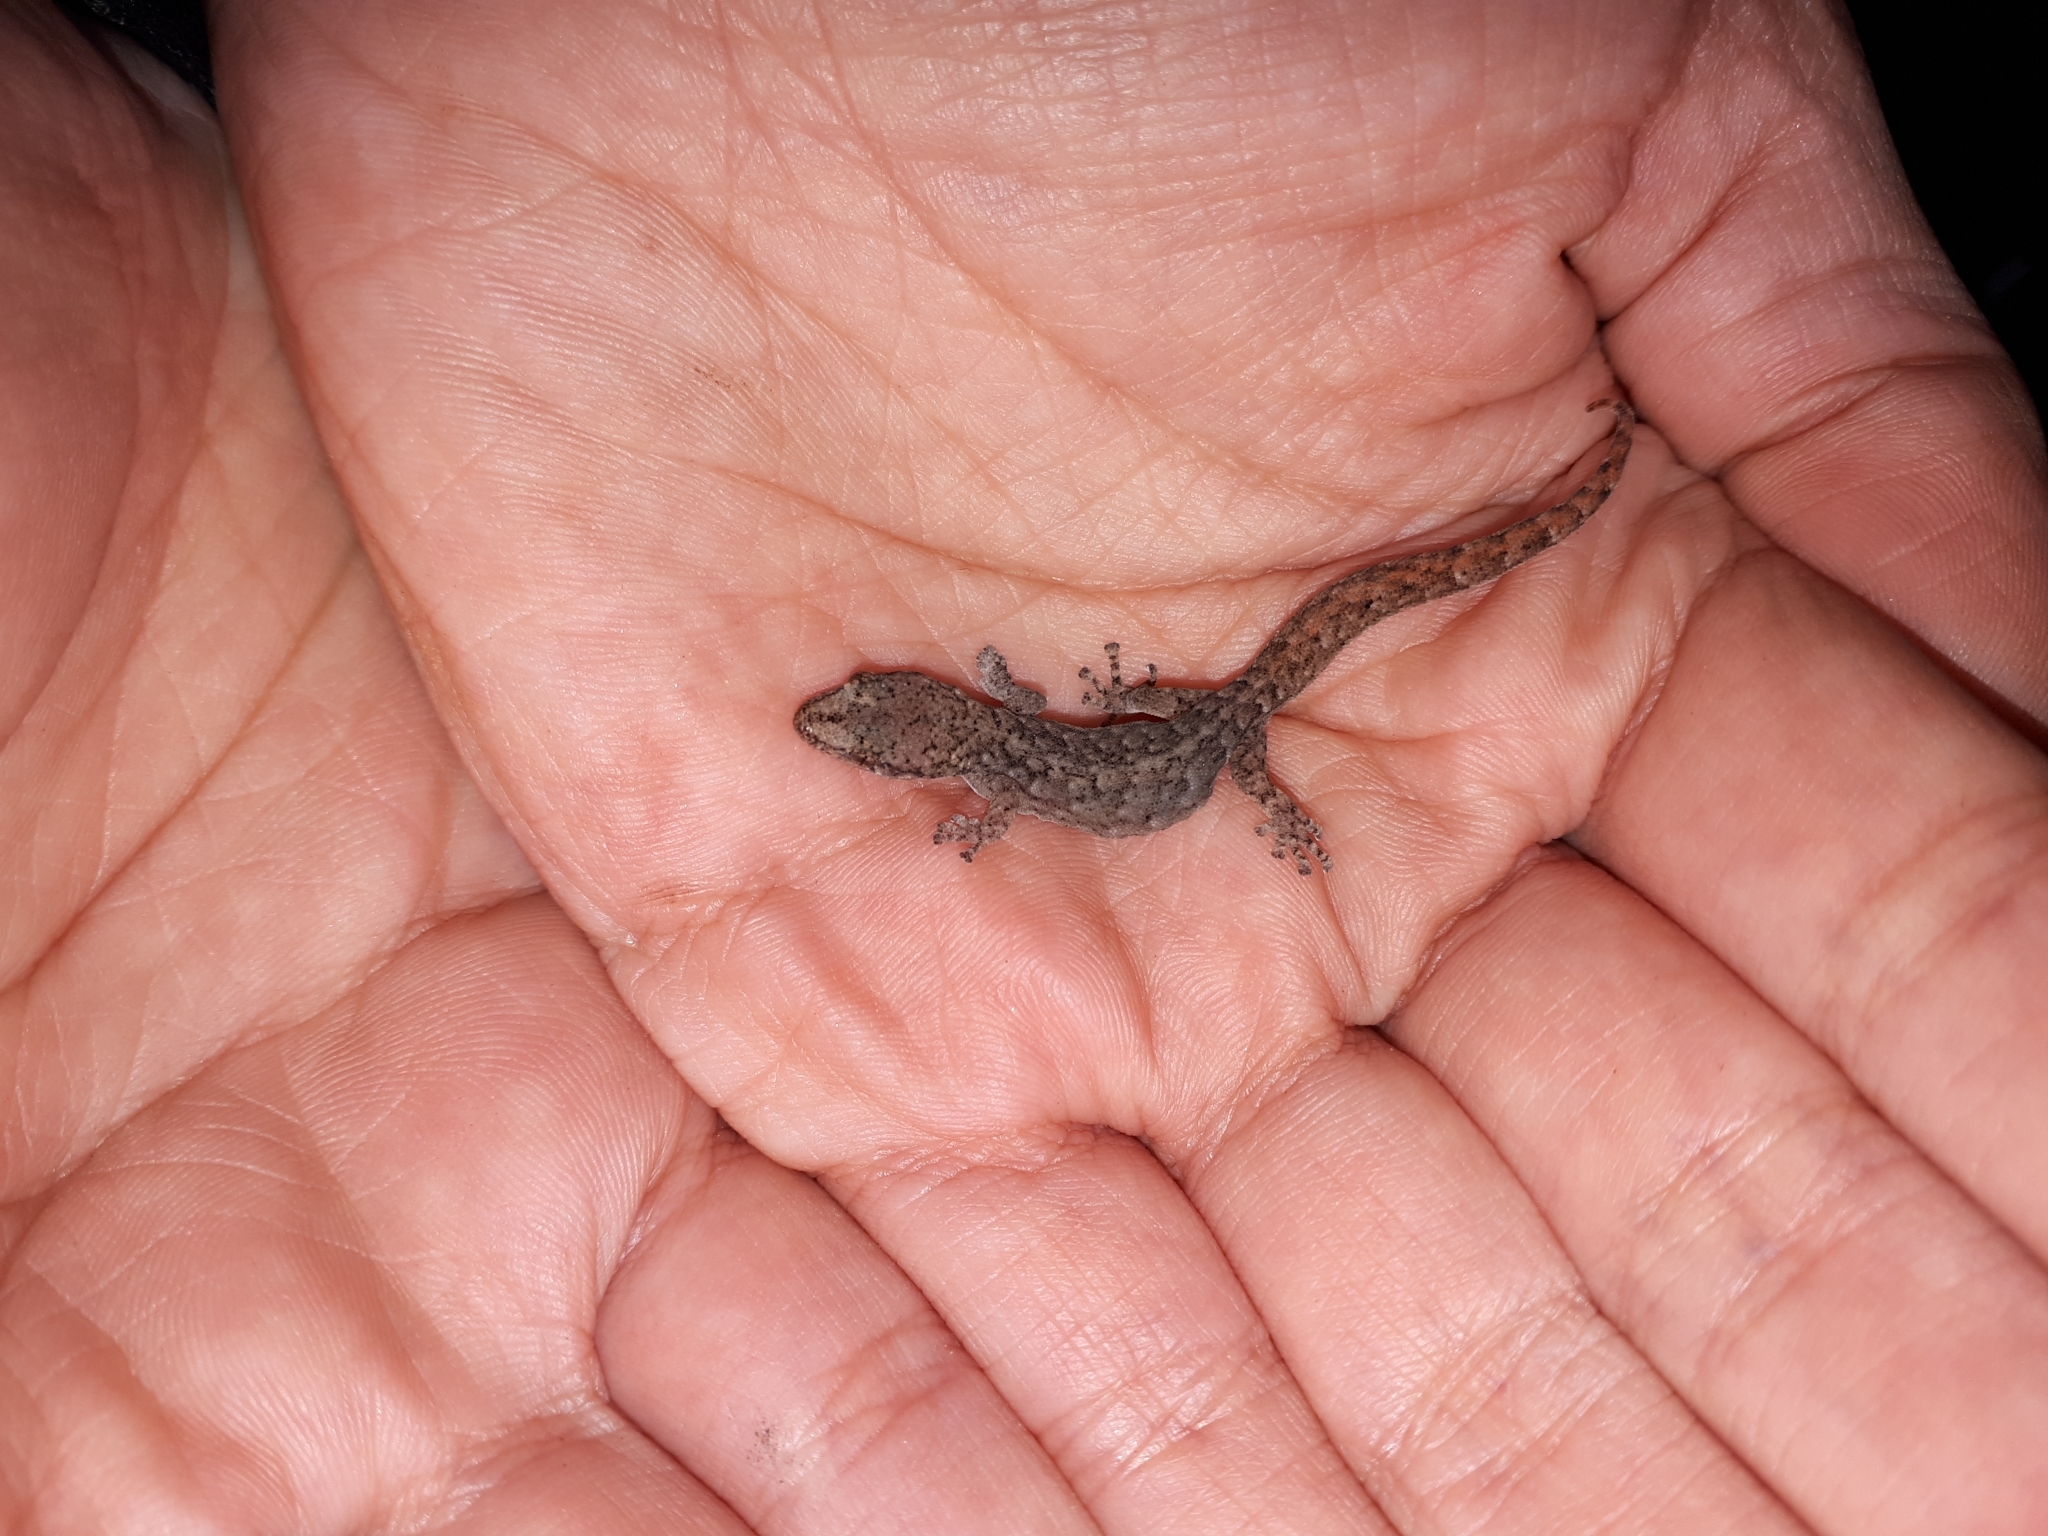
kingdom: Animalia
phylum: Chordata
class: Squamata
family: Gekkonidae
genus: Afrogecko
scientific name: Afrogecko porphyreus
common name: Marbled leaf-toed gecko
